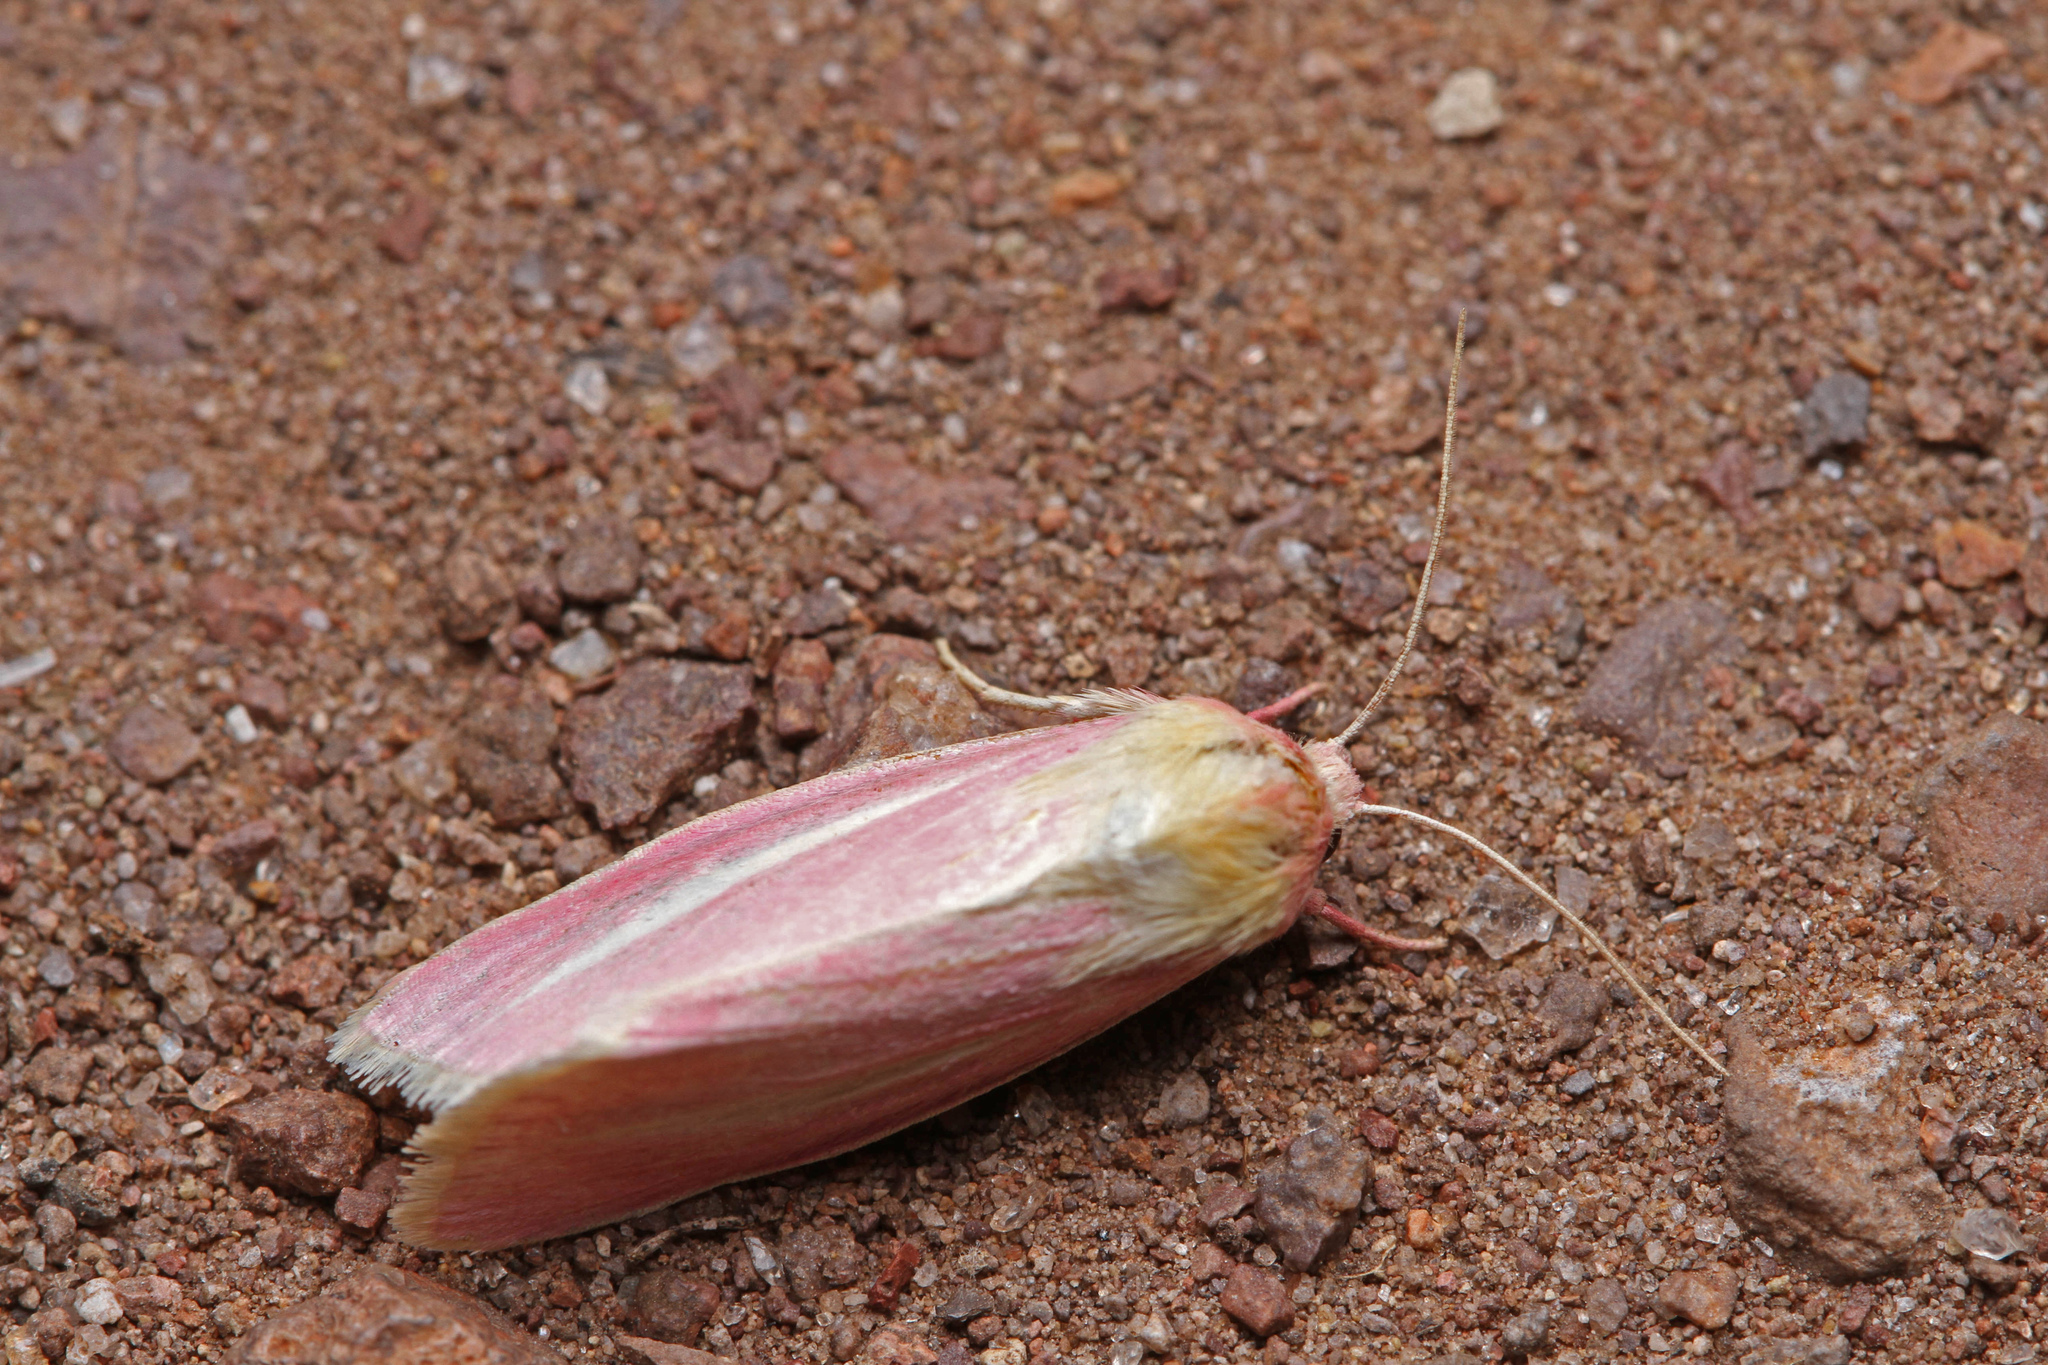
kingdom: Animalia
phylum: Arthropoda
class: Insecta
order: Lepidoptera
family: Noctuidae
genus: Heliocheilus
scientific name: Heliocheilus julia
